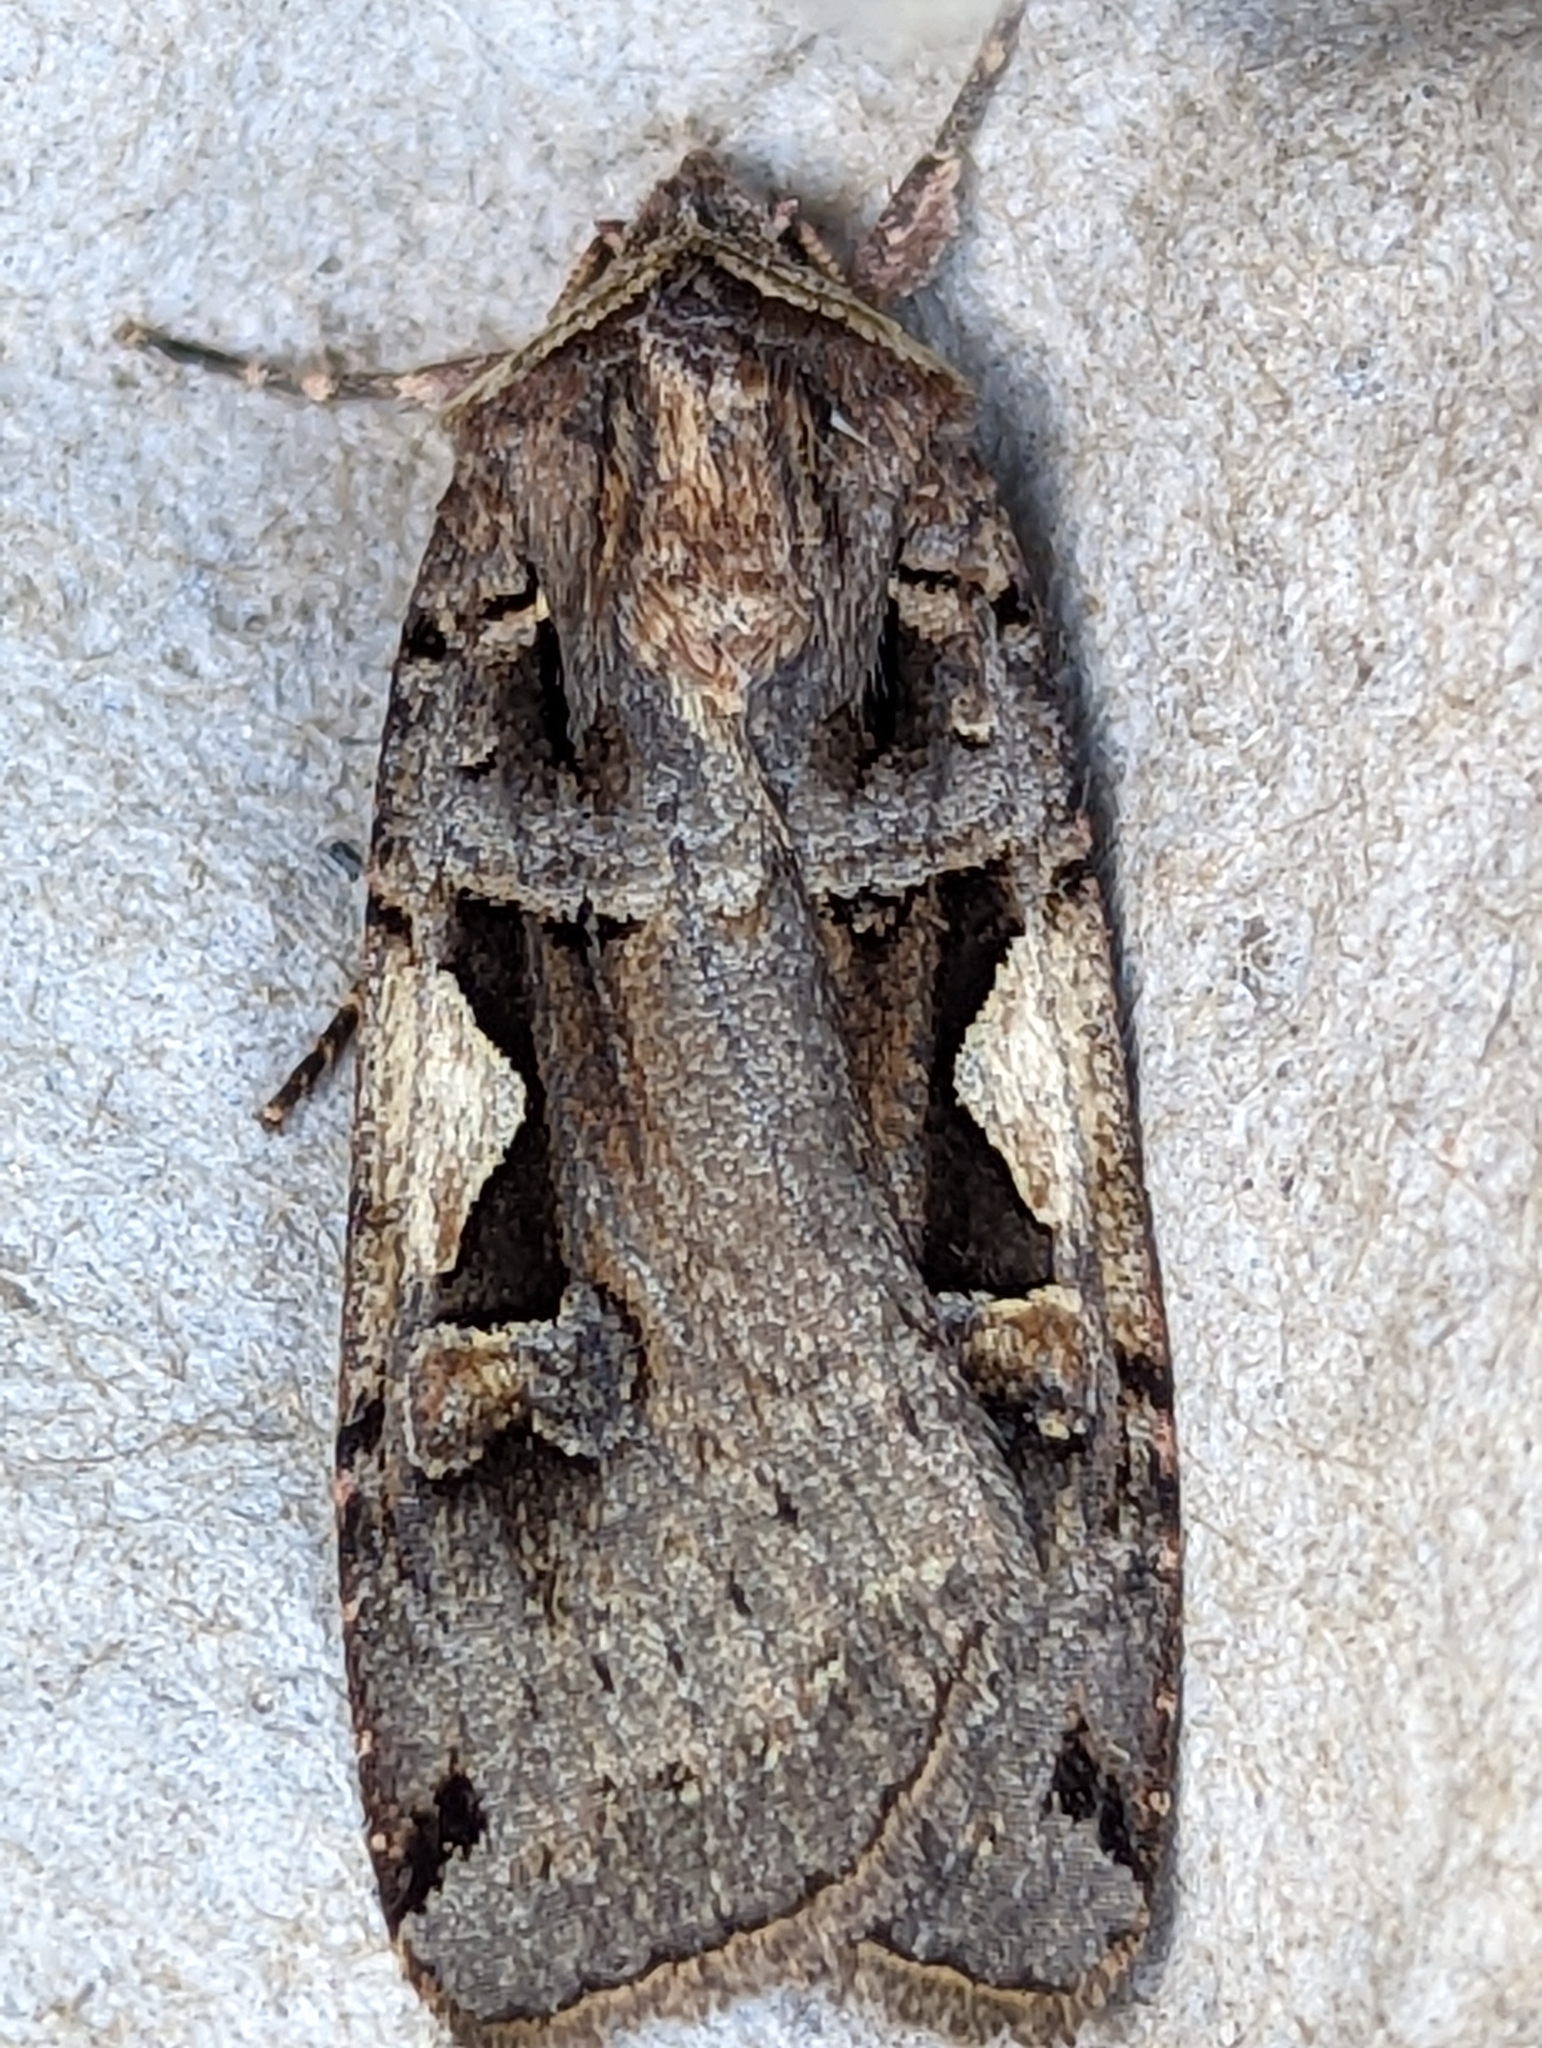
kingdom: Animalia
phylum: Arthropoda
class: Insecta
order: Lepidoptera
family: Noctuidae
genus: Xestia
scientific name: Xestia c-nigrum
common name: Setaceous hebrew character
